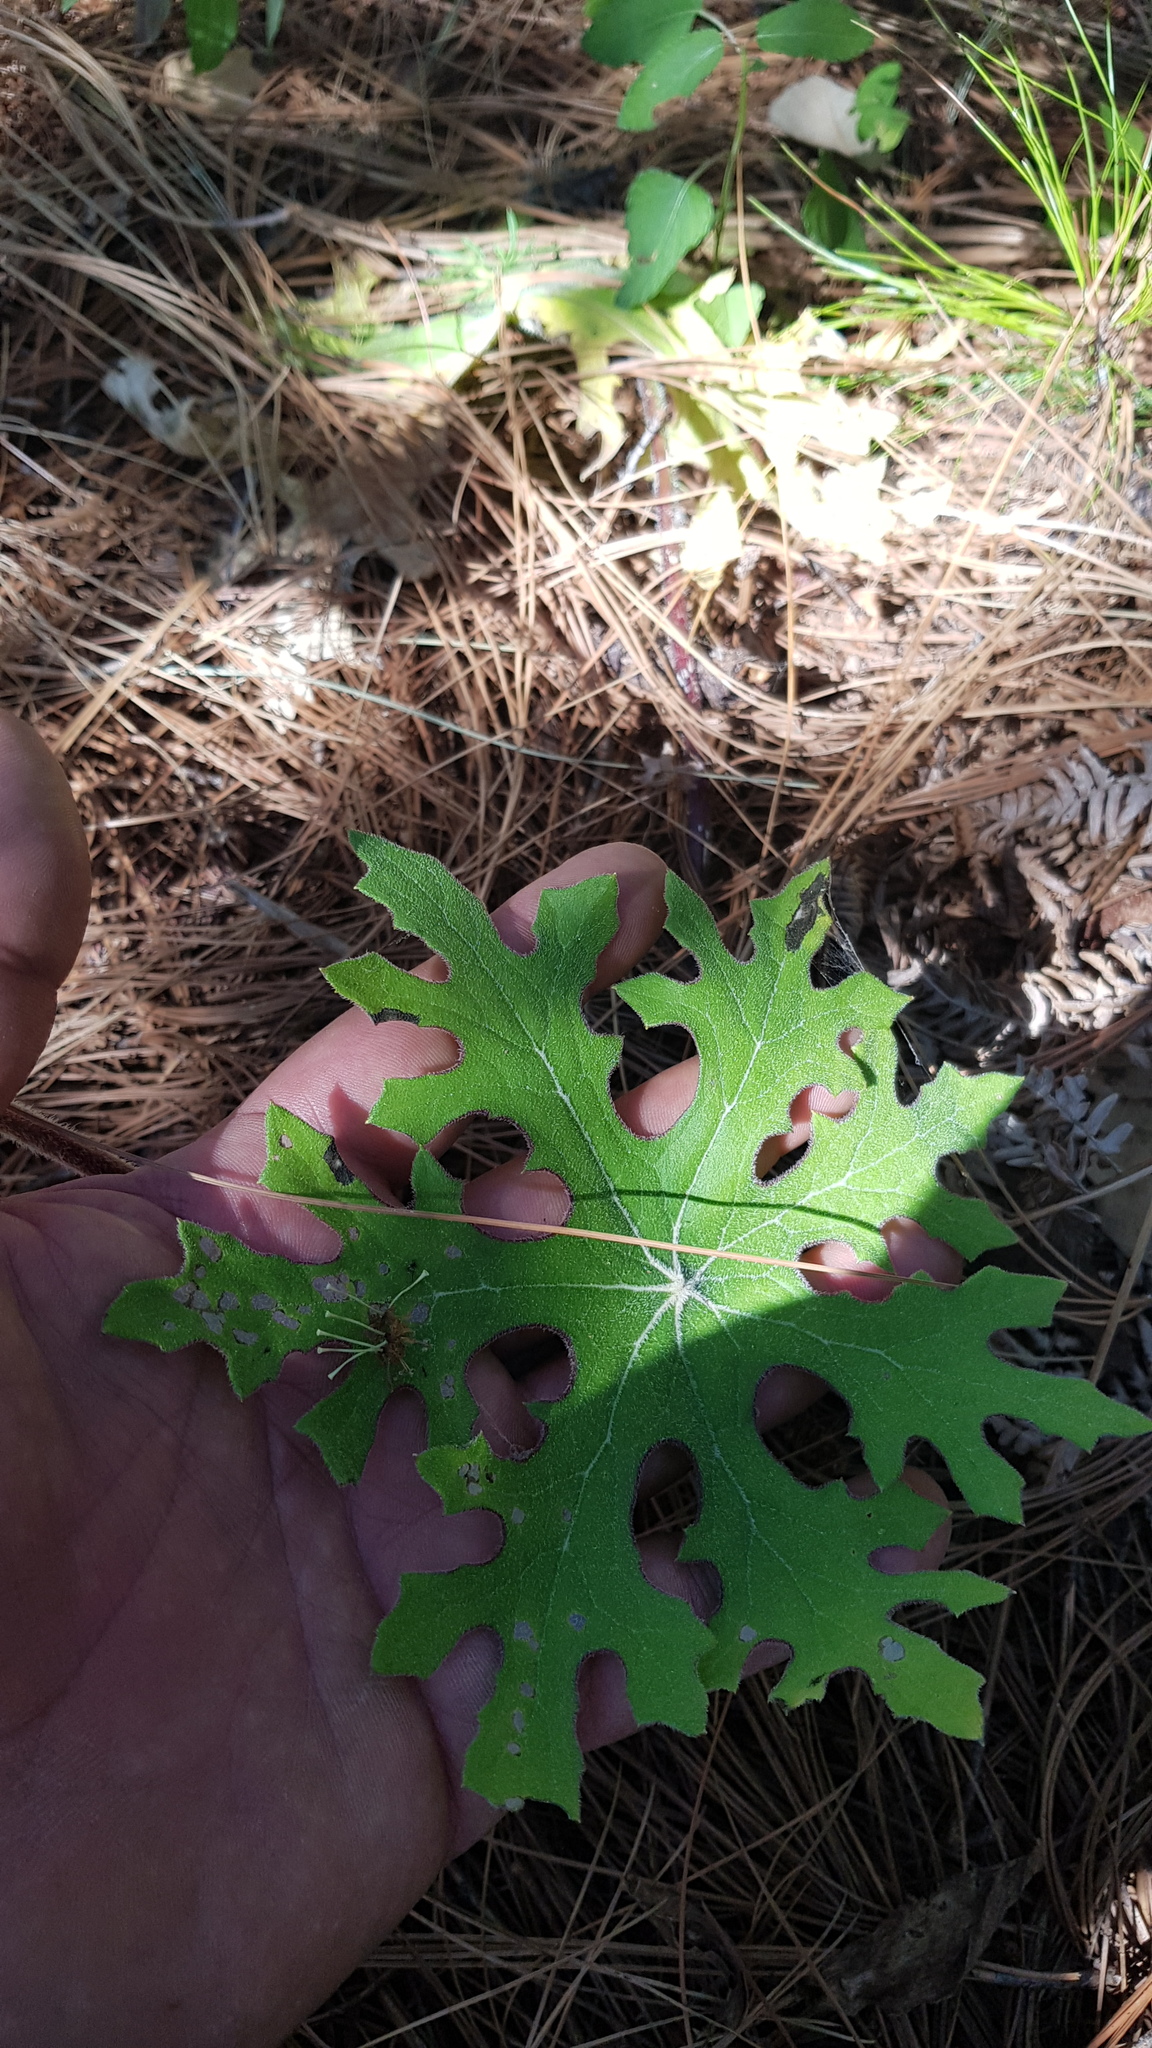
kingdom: Plantae
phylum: Tracheophyta
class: Magnoliopsida
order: Asterales
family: Asteraceae
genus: Psacaliopsis
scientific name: Psacaliopsis purpusii
